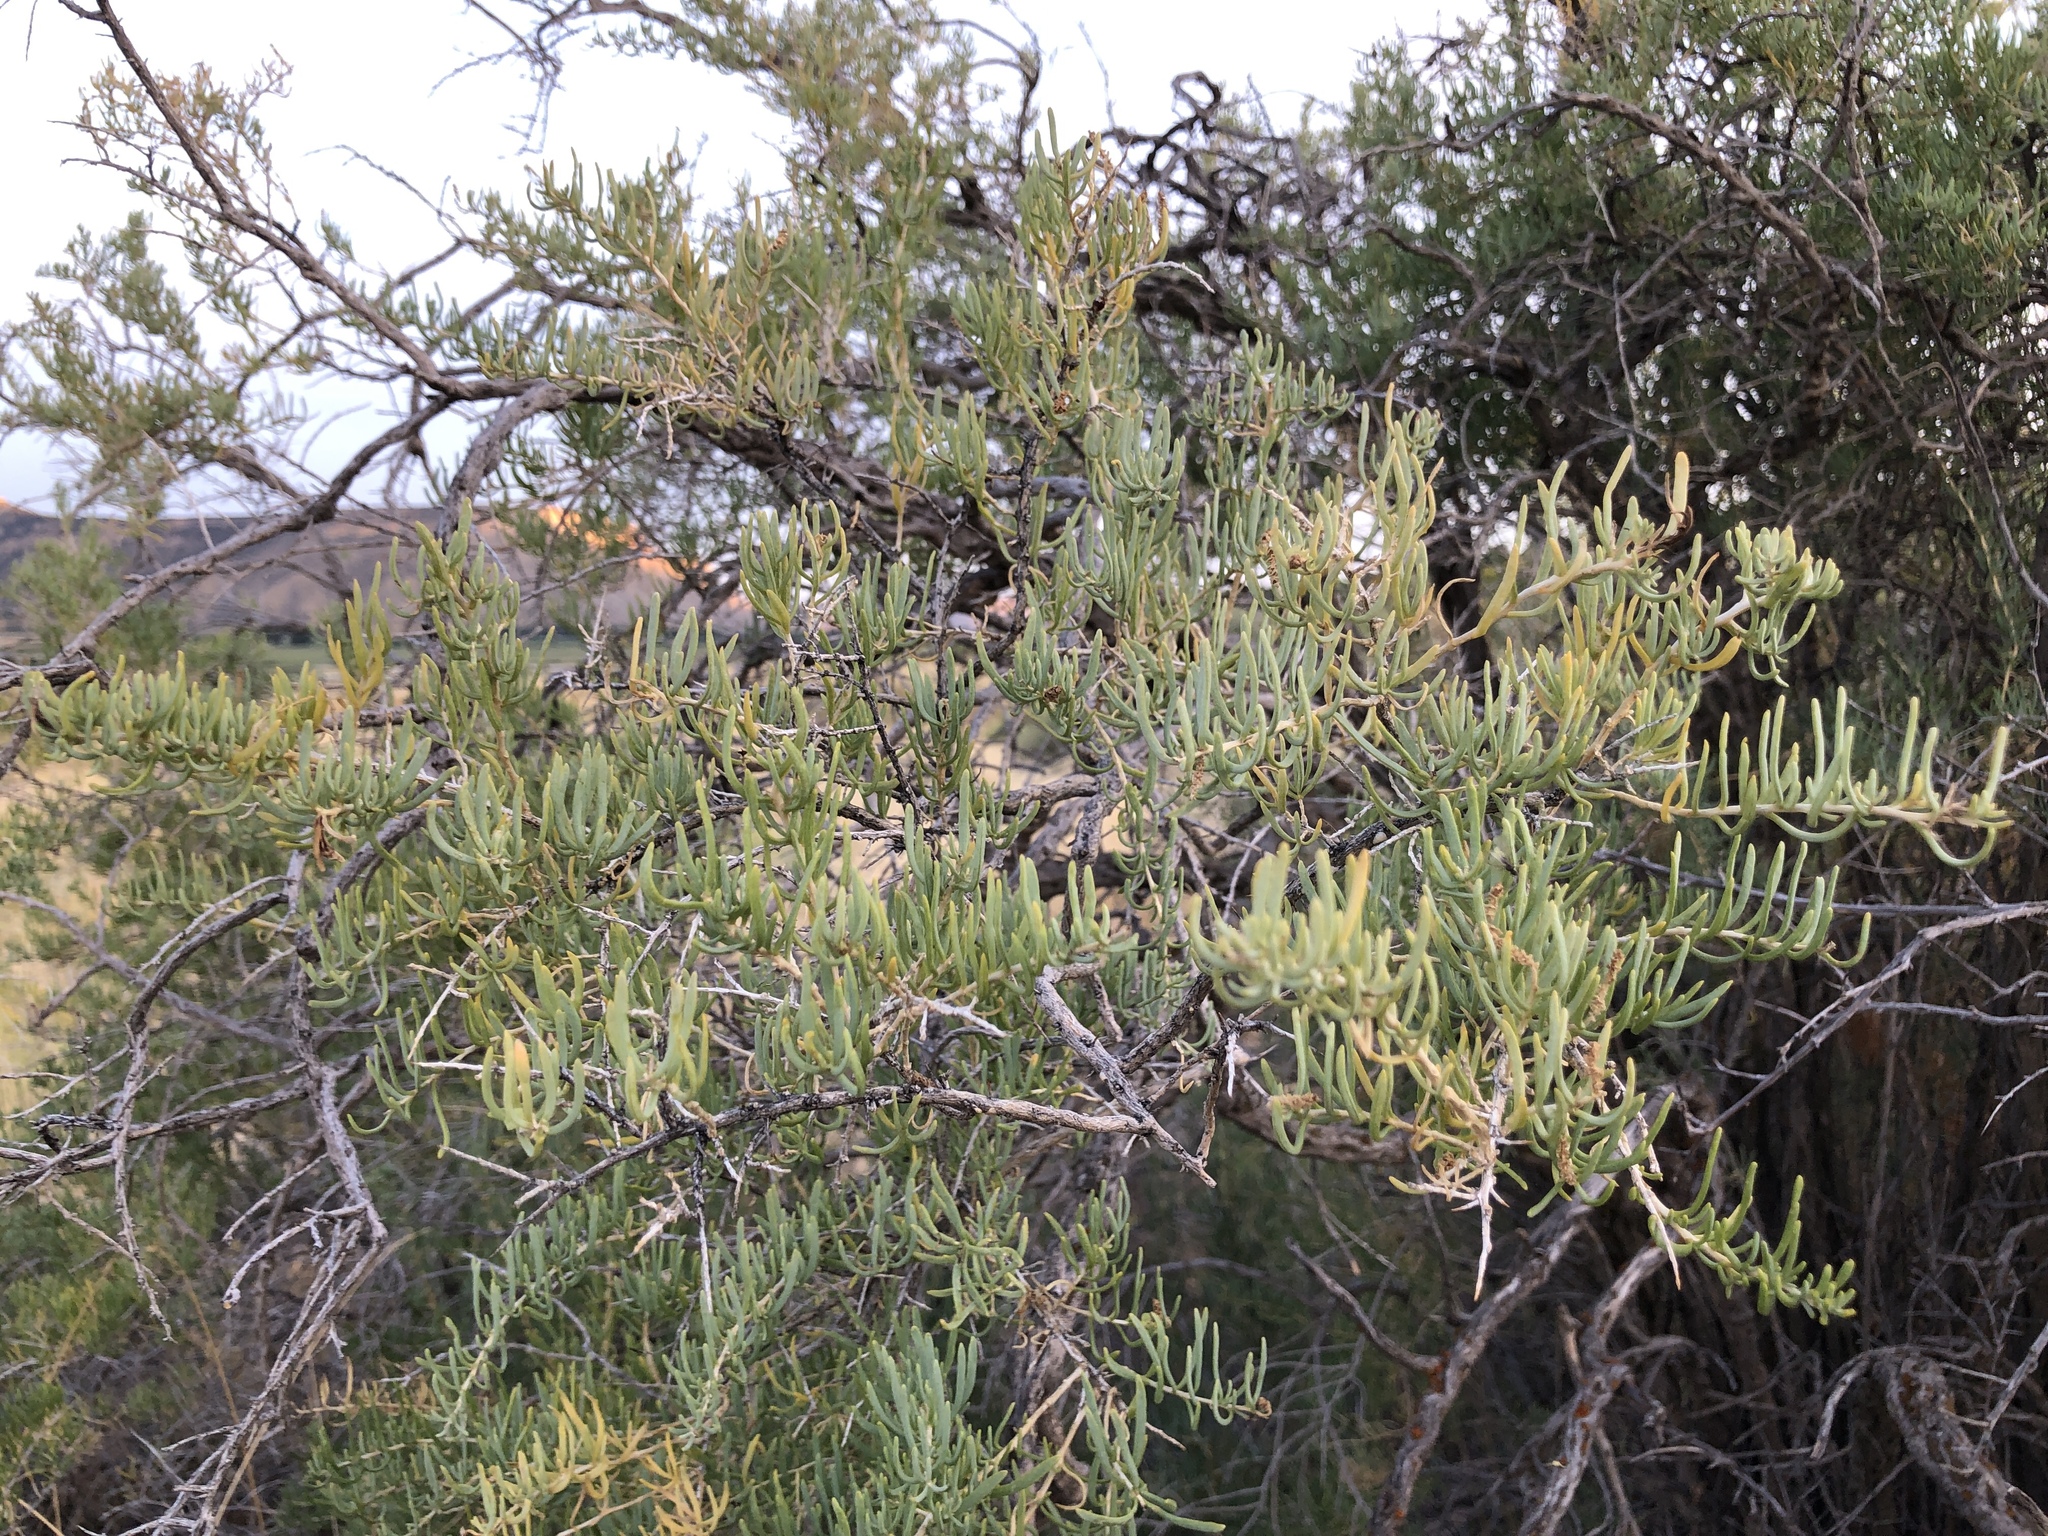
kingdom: Plantae
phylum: Tracheophyta
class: Magnoliopsida
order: Caryophyllales
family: Sarcobataceae
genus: Sarcobatus
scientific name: Sarcobatus vermiculatus
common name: Greasewood
